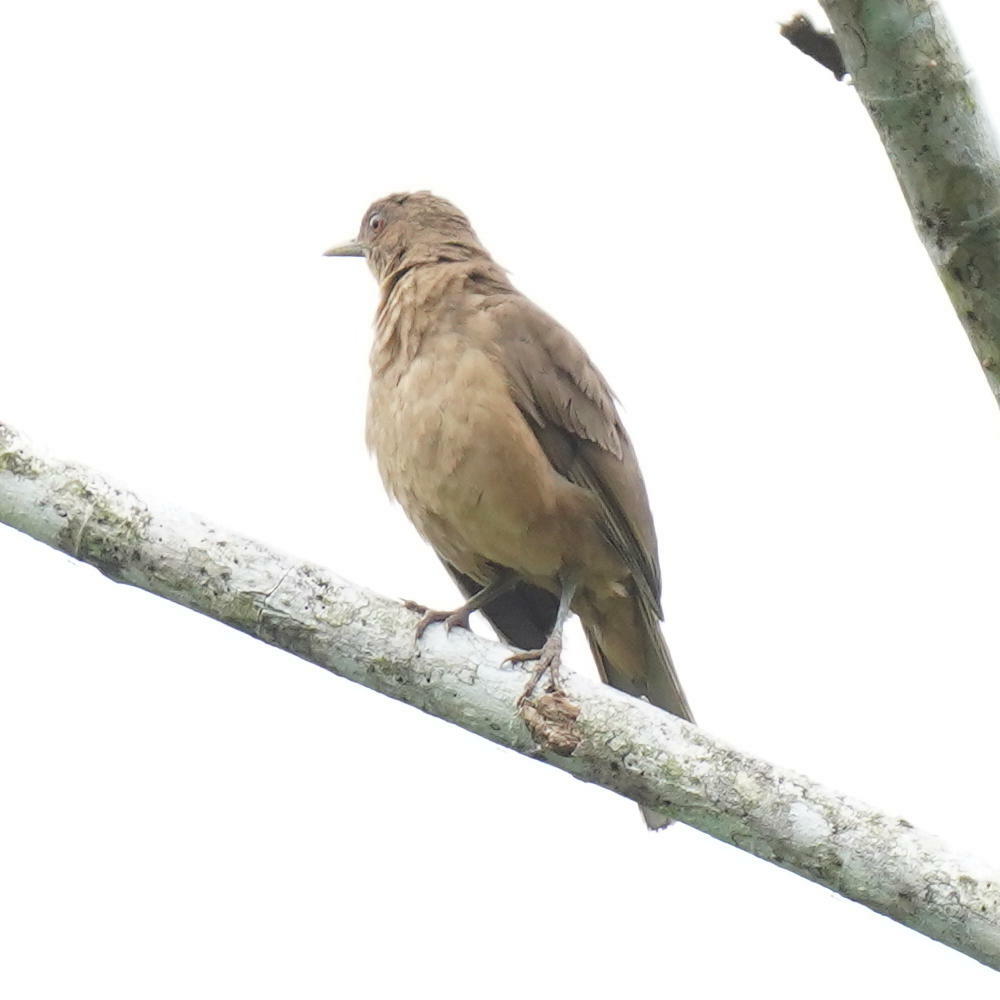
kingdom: Animalia
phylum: Chordata
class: Aves
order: Passeriformes
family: Turdidae
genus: Turdus
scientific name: Turdus grayi
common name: Clay-colored thrush
